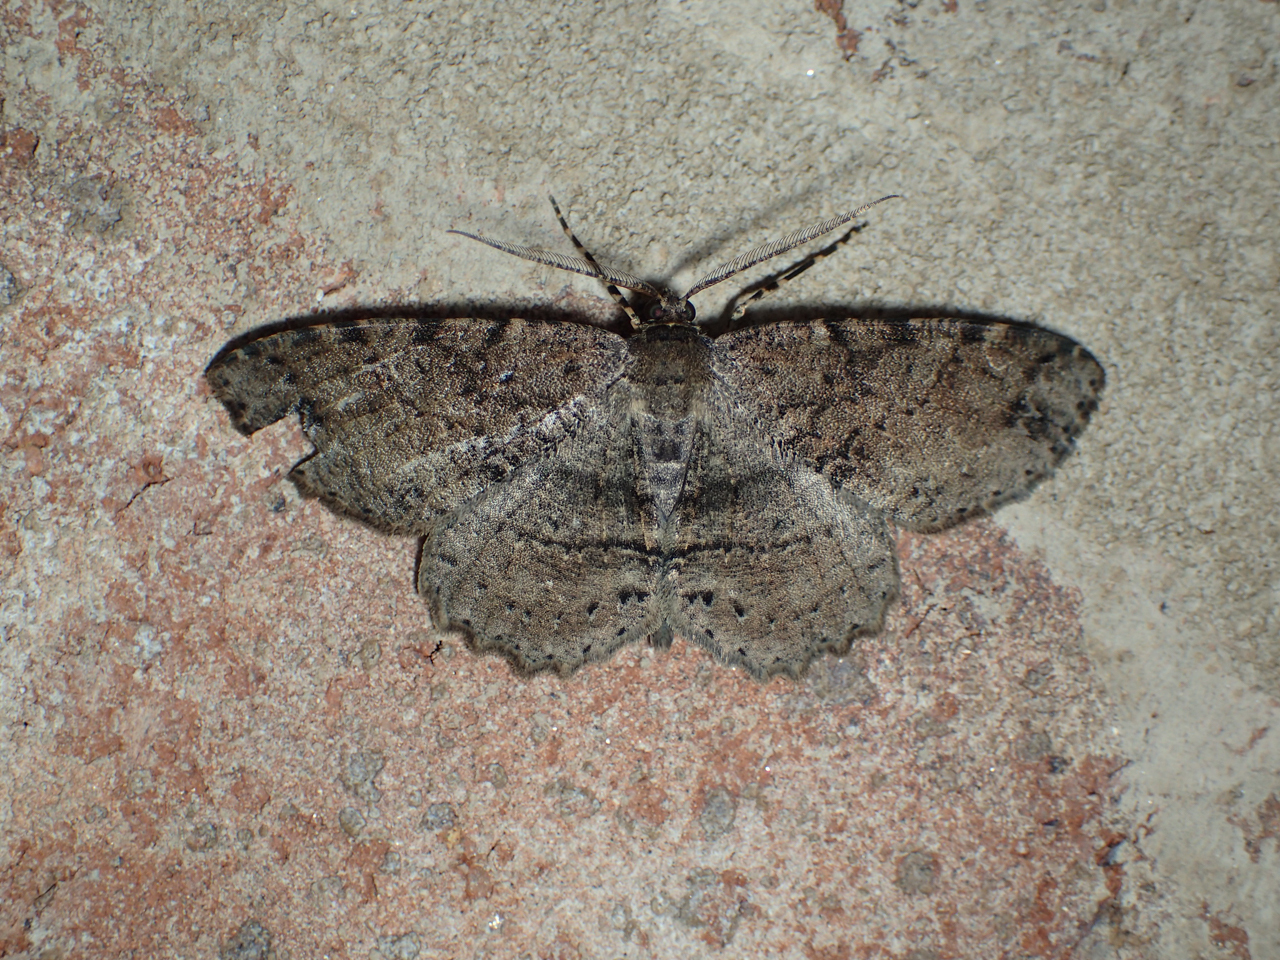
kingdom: Animalia
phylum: Arthropoda
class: Insecta
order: Lepidoptera
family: Geometridae
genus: Melanolophia
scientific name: Melanolophia canadaria
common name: Canadian melanolophia
